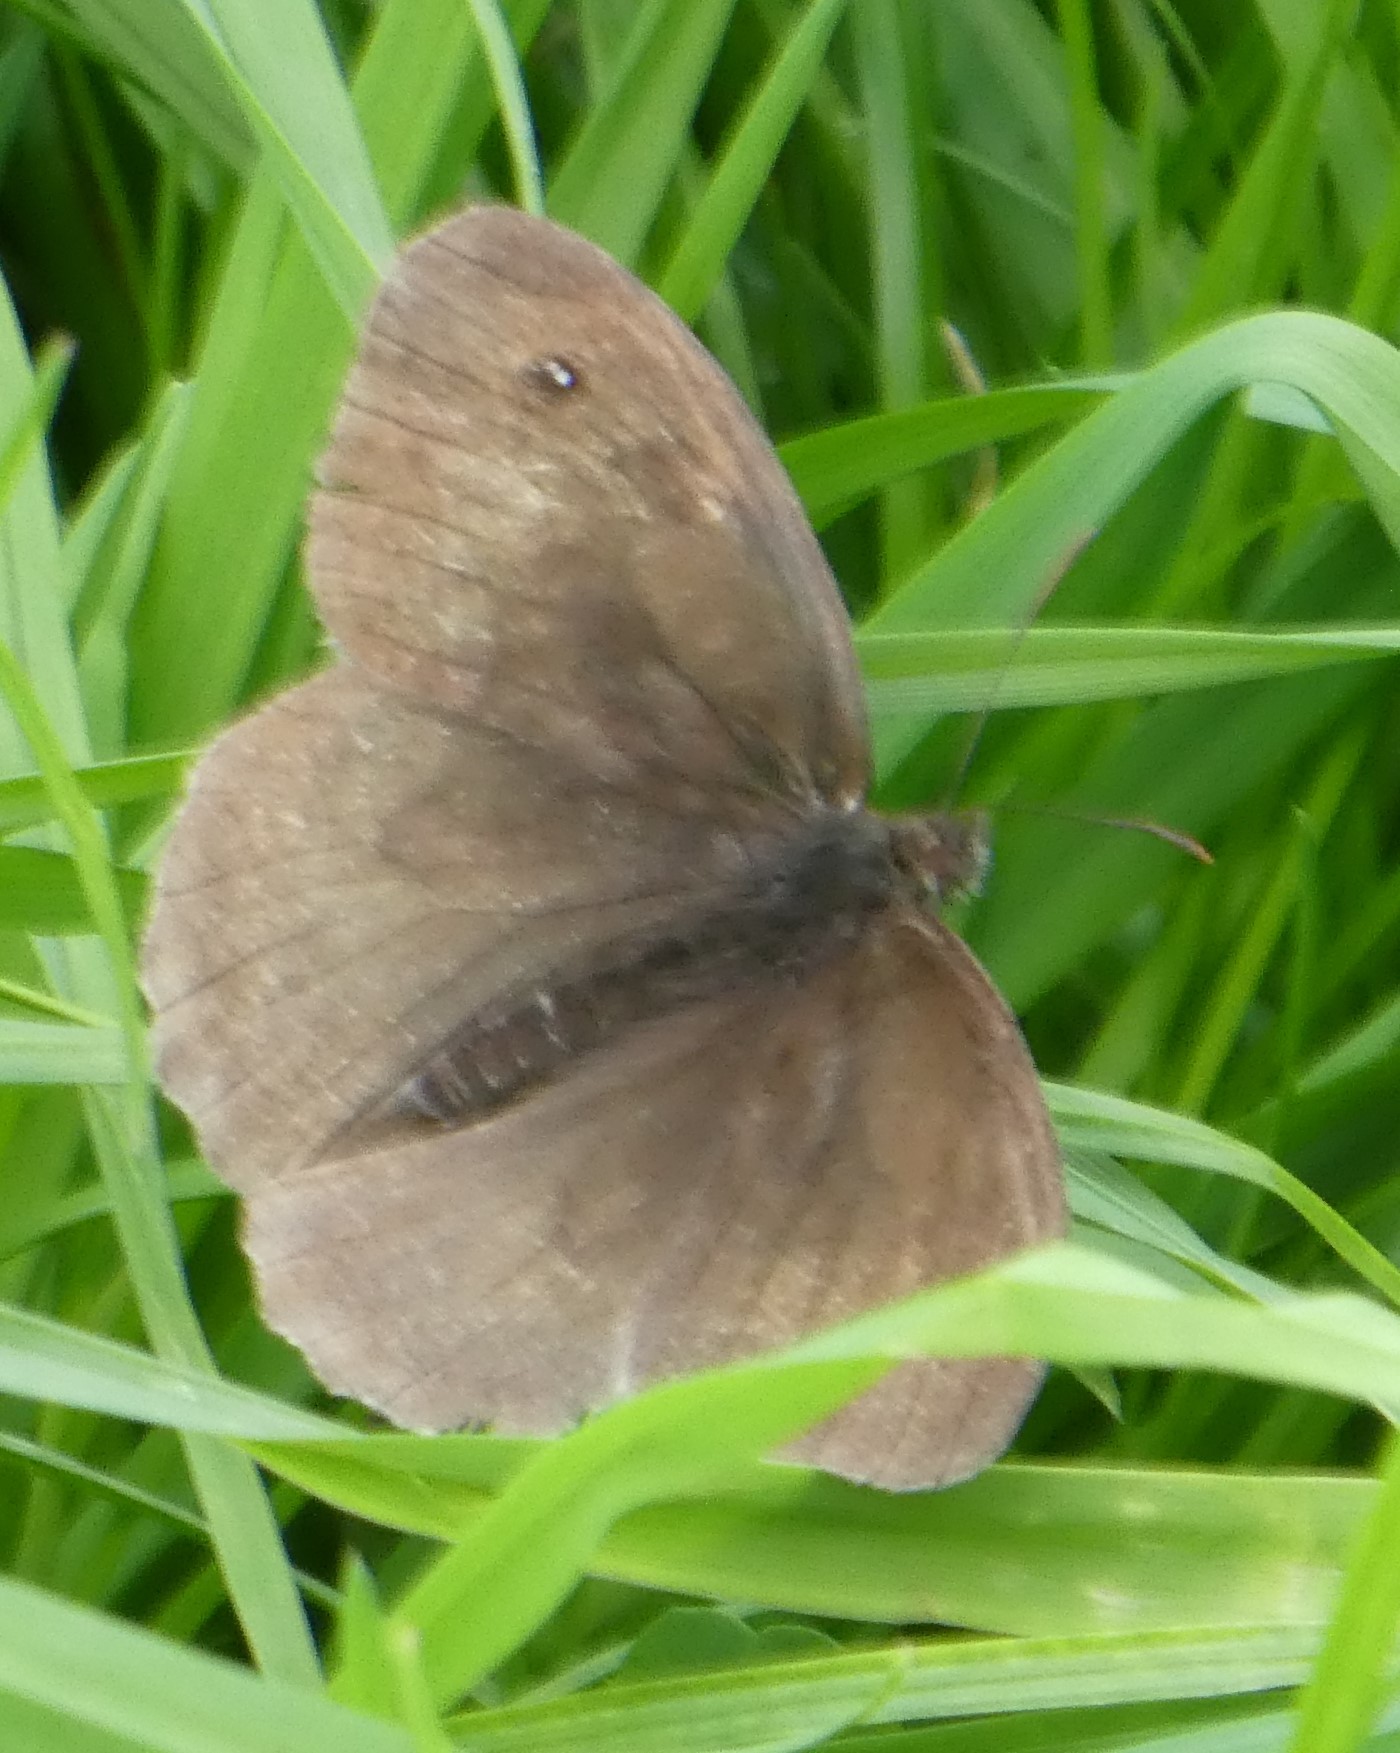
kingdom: Animalia
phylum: Arthropoda
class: Insecta
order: Lepidoptera
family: Nymphalidae
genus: Maniola
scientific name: Maniola jurtina
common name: Meadow brown
